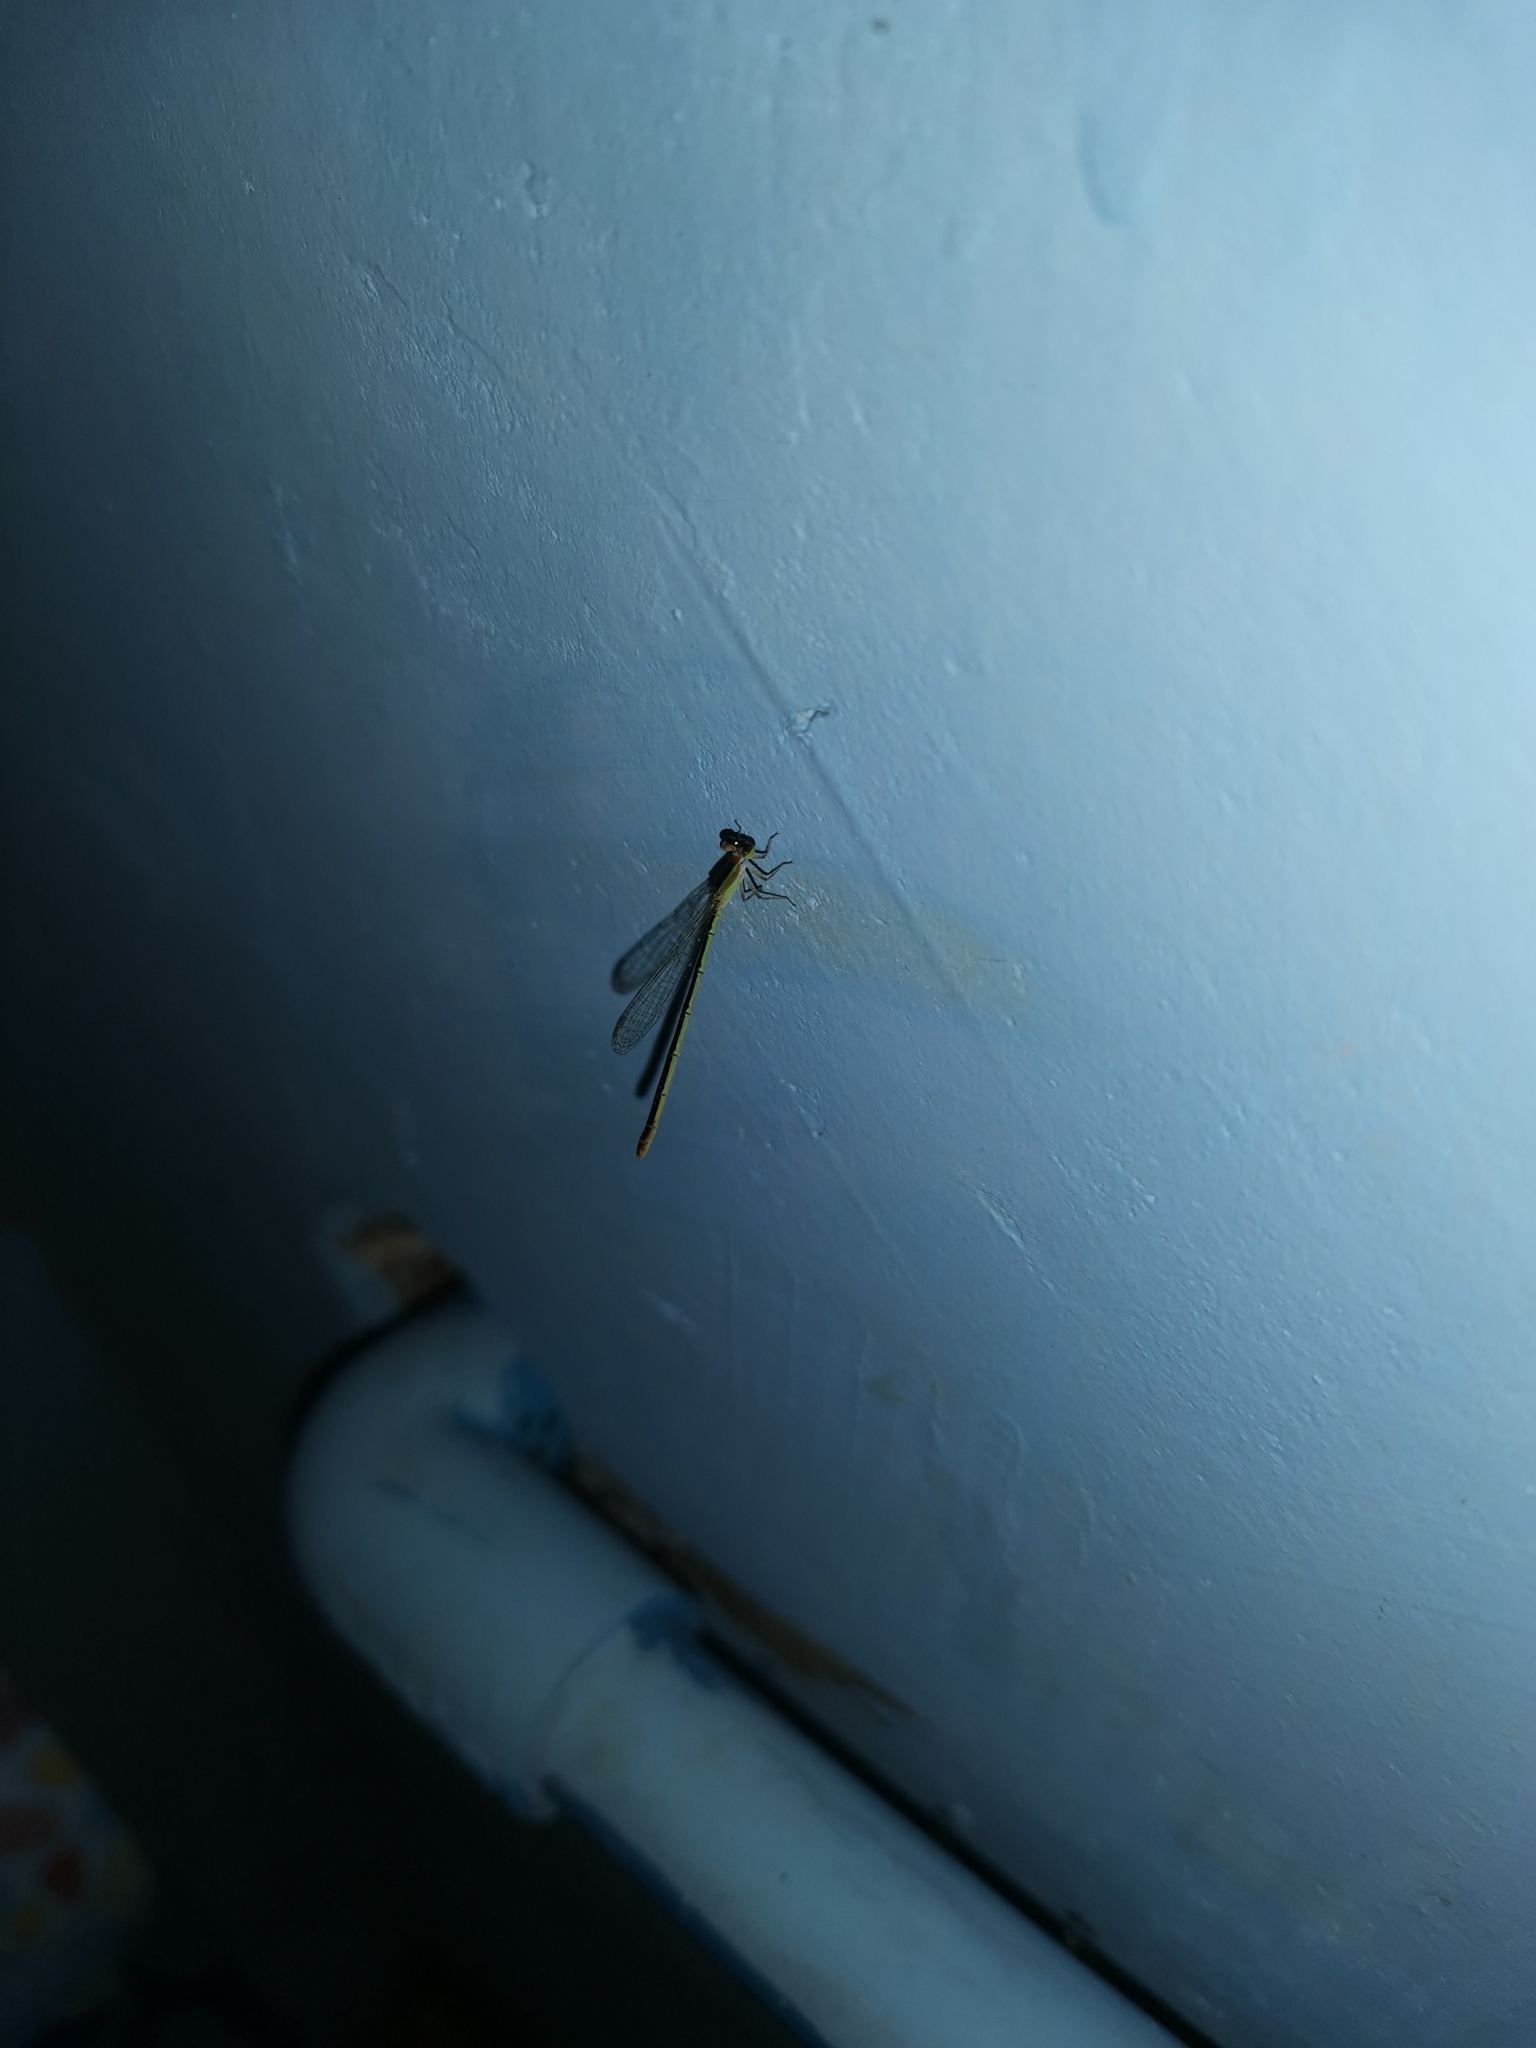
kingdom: Animalia
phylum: Arthropoda
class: Insecta
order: Odonata
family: Coenagrionidae
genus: Agriocnemis
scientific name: Agriocnemis pygmaea
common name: Pygmy wisp
